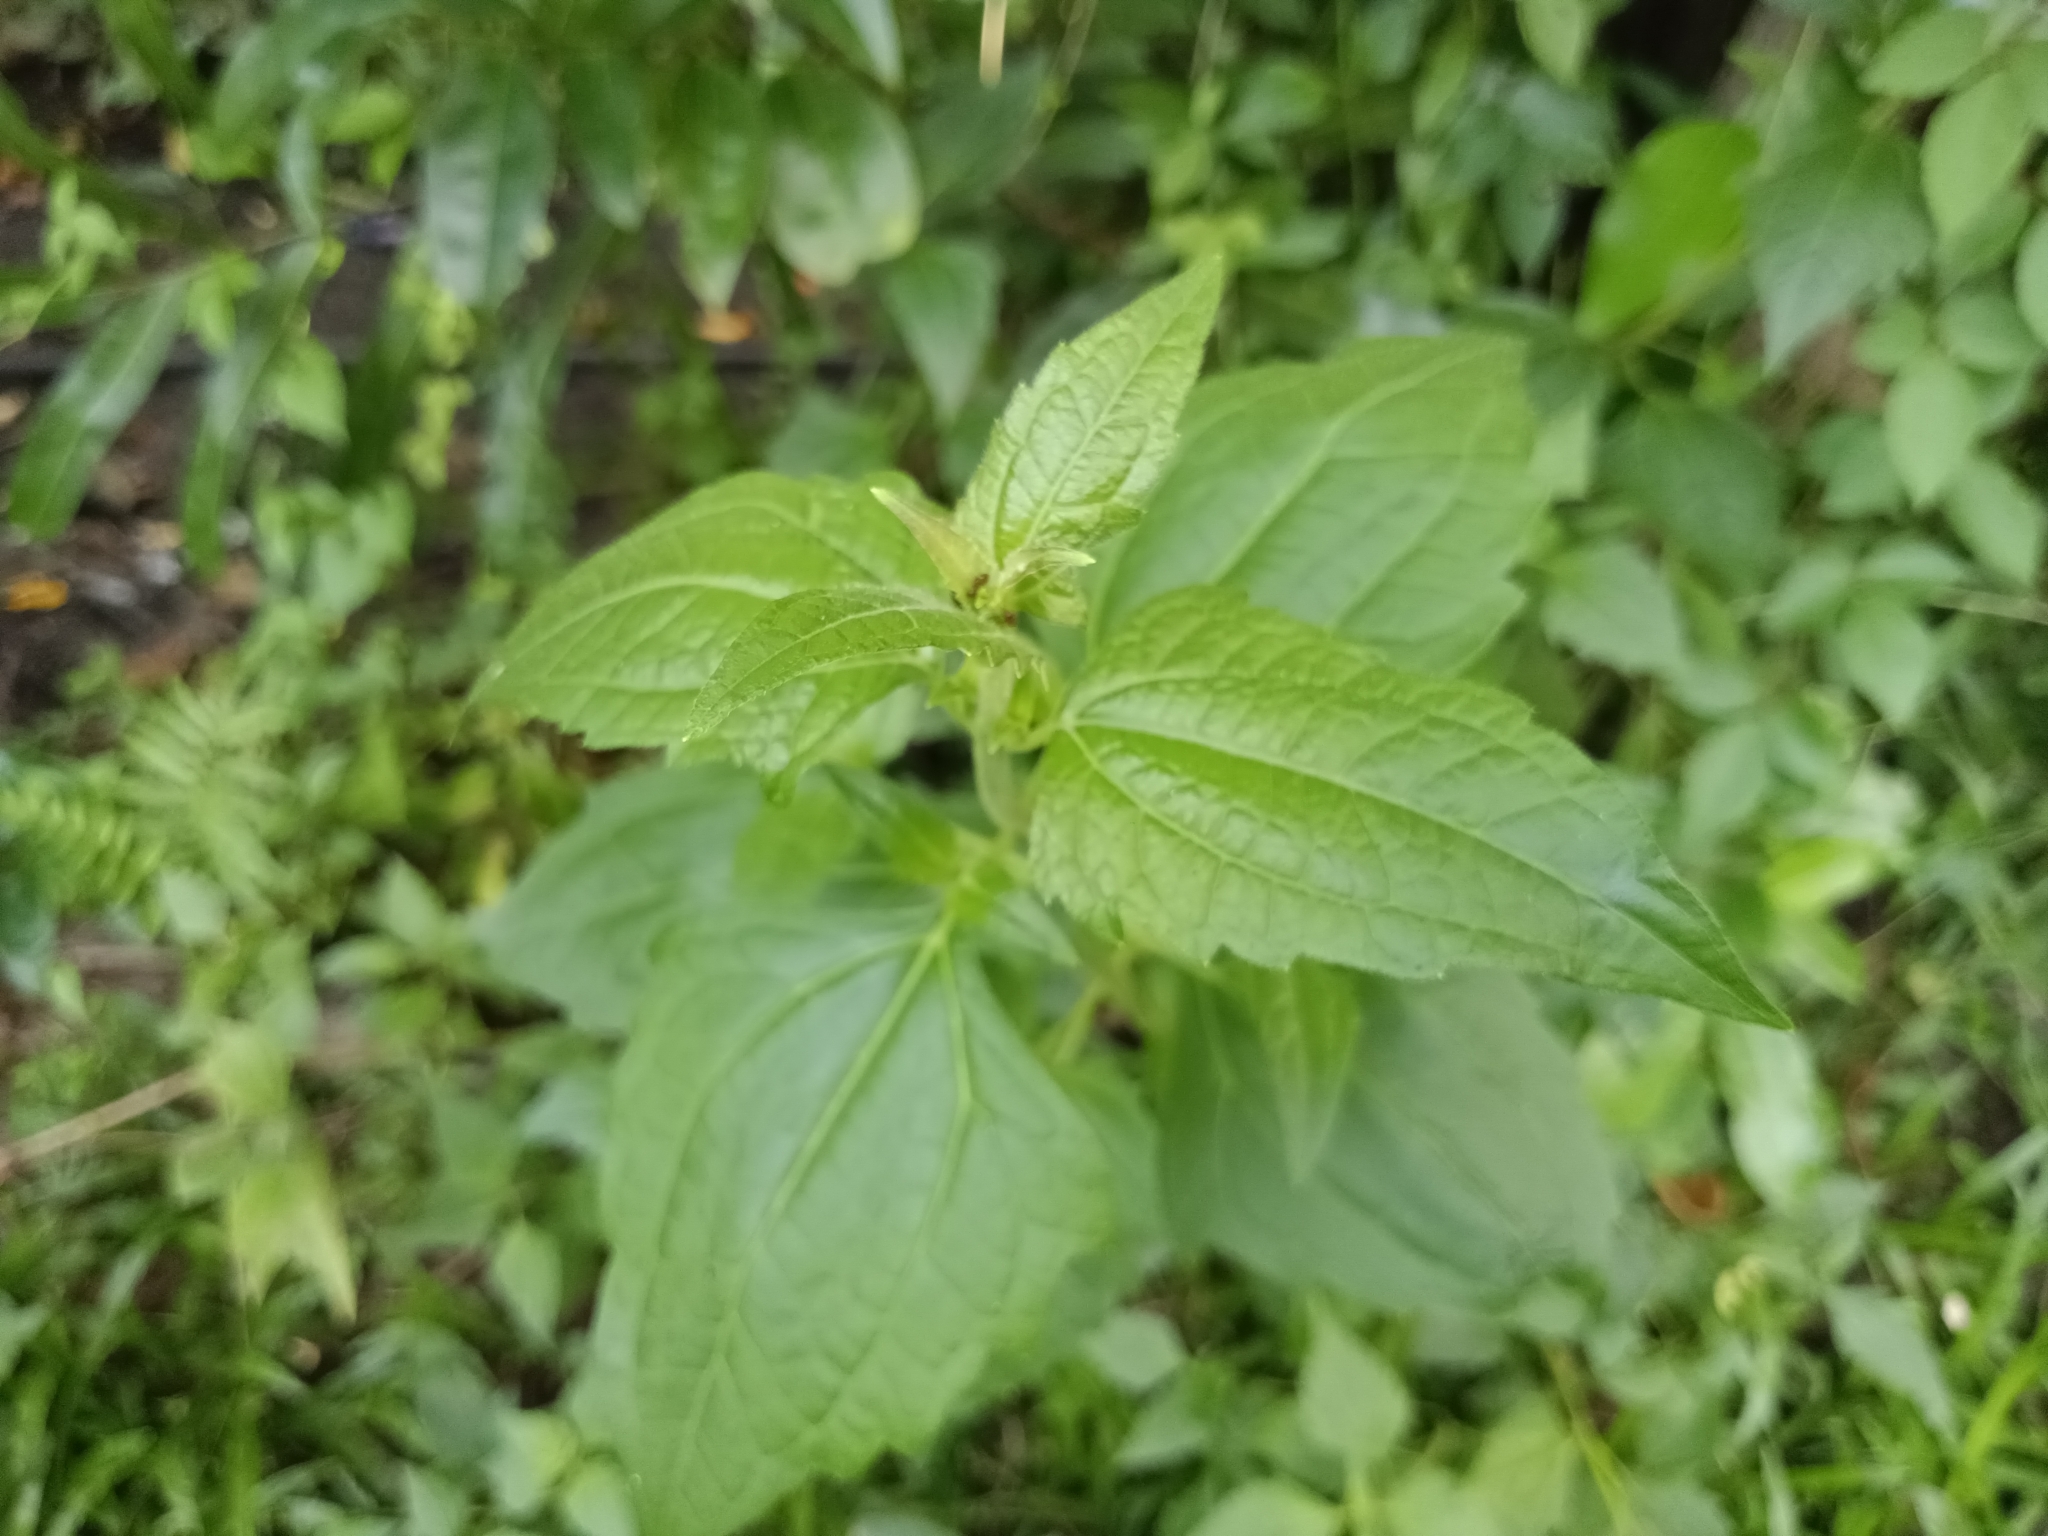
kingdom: Plantae
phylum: Tracheophyta
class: Magnoliopsida
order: Asterales
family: Asteraceae
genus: Chromolaena
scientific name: Chromolaena odorata
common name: Siamweed
